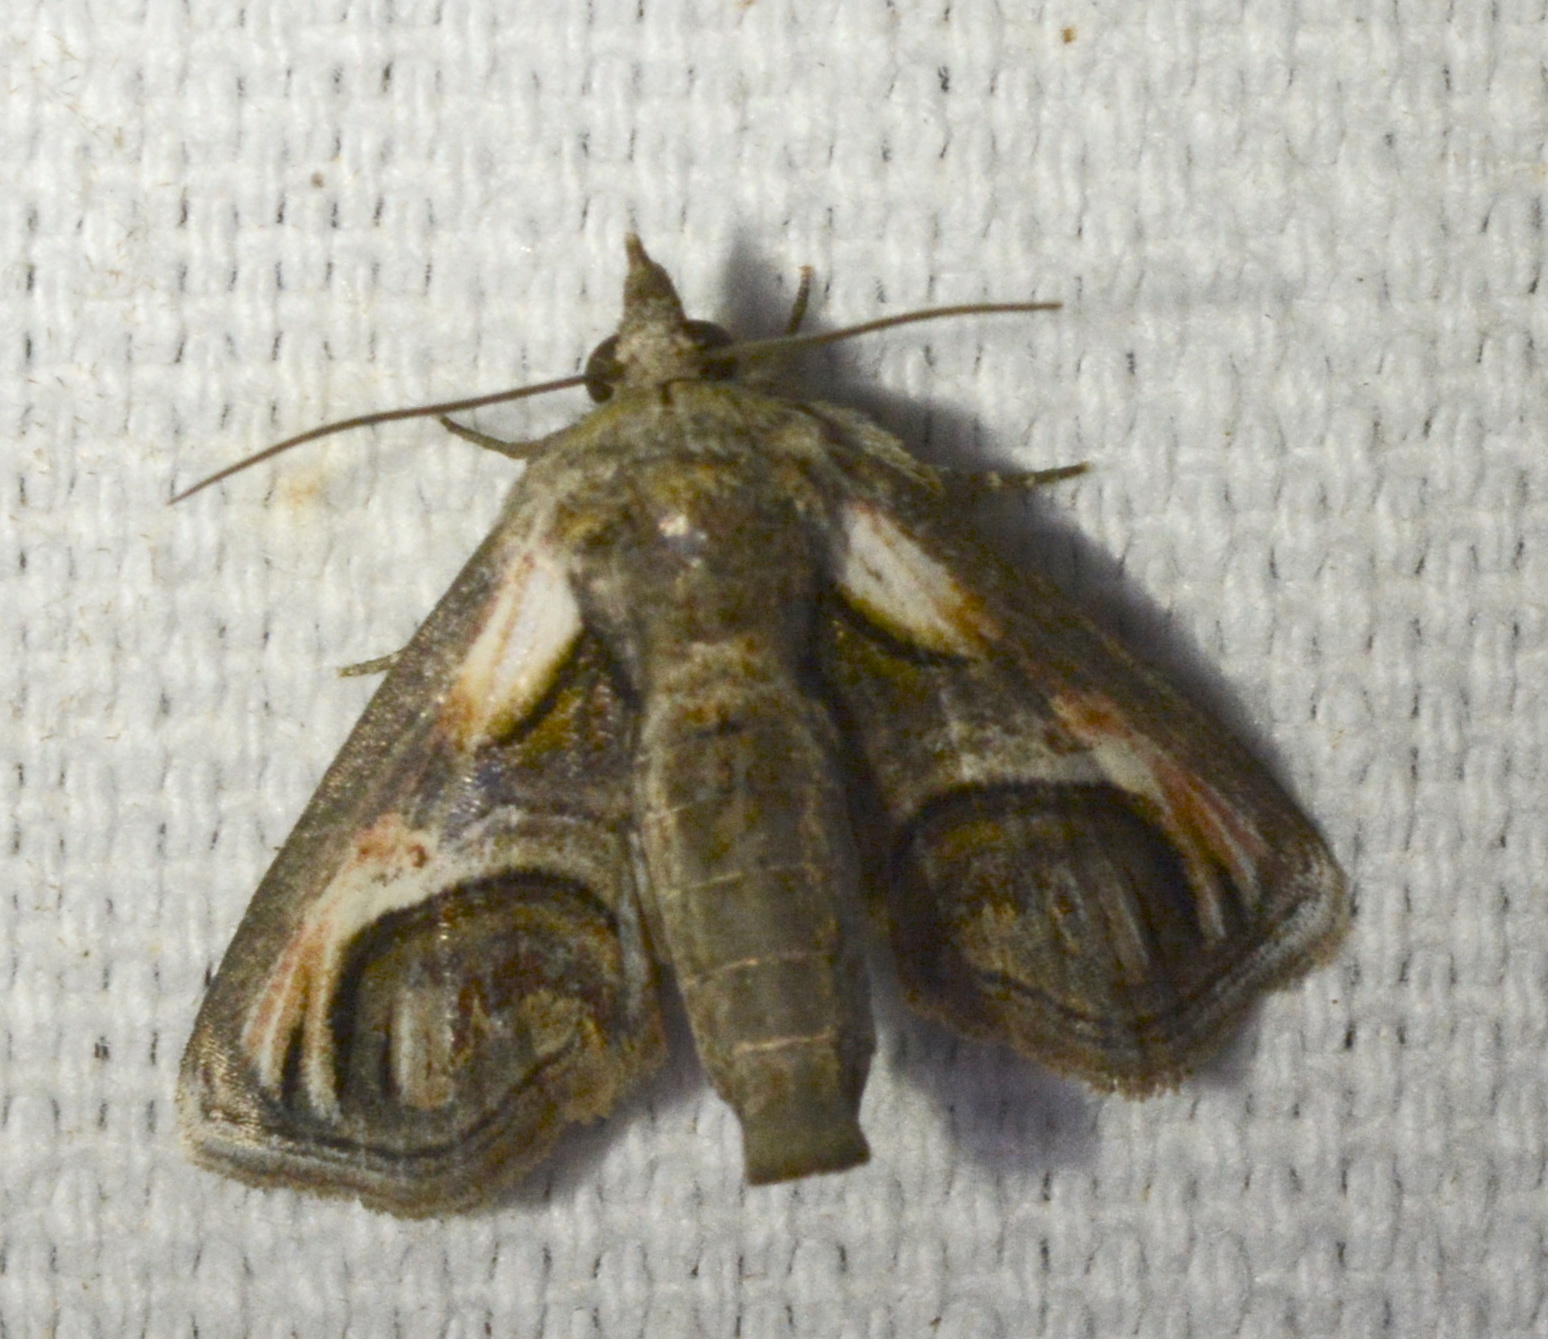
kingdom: Animalia
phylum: Arthropoda
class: Insecta
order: Lepidoptera
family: Euteliidae
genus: Paectes
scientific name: Paectes oculatrix
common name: Eyed paectes moth
